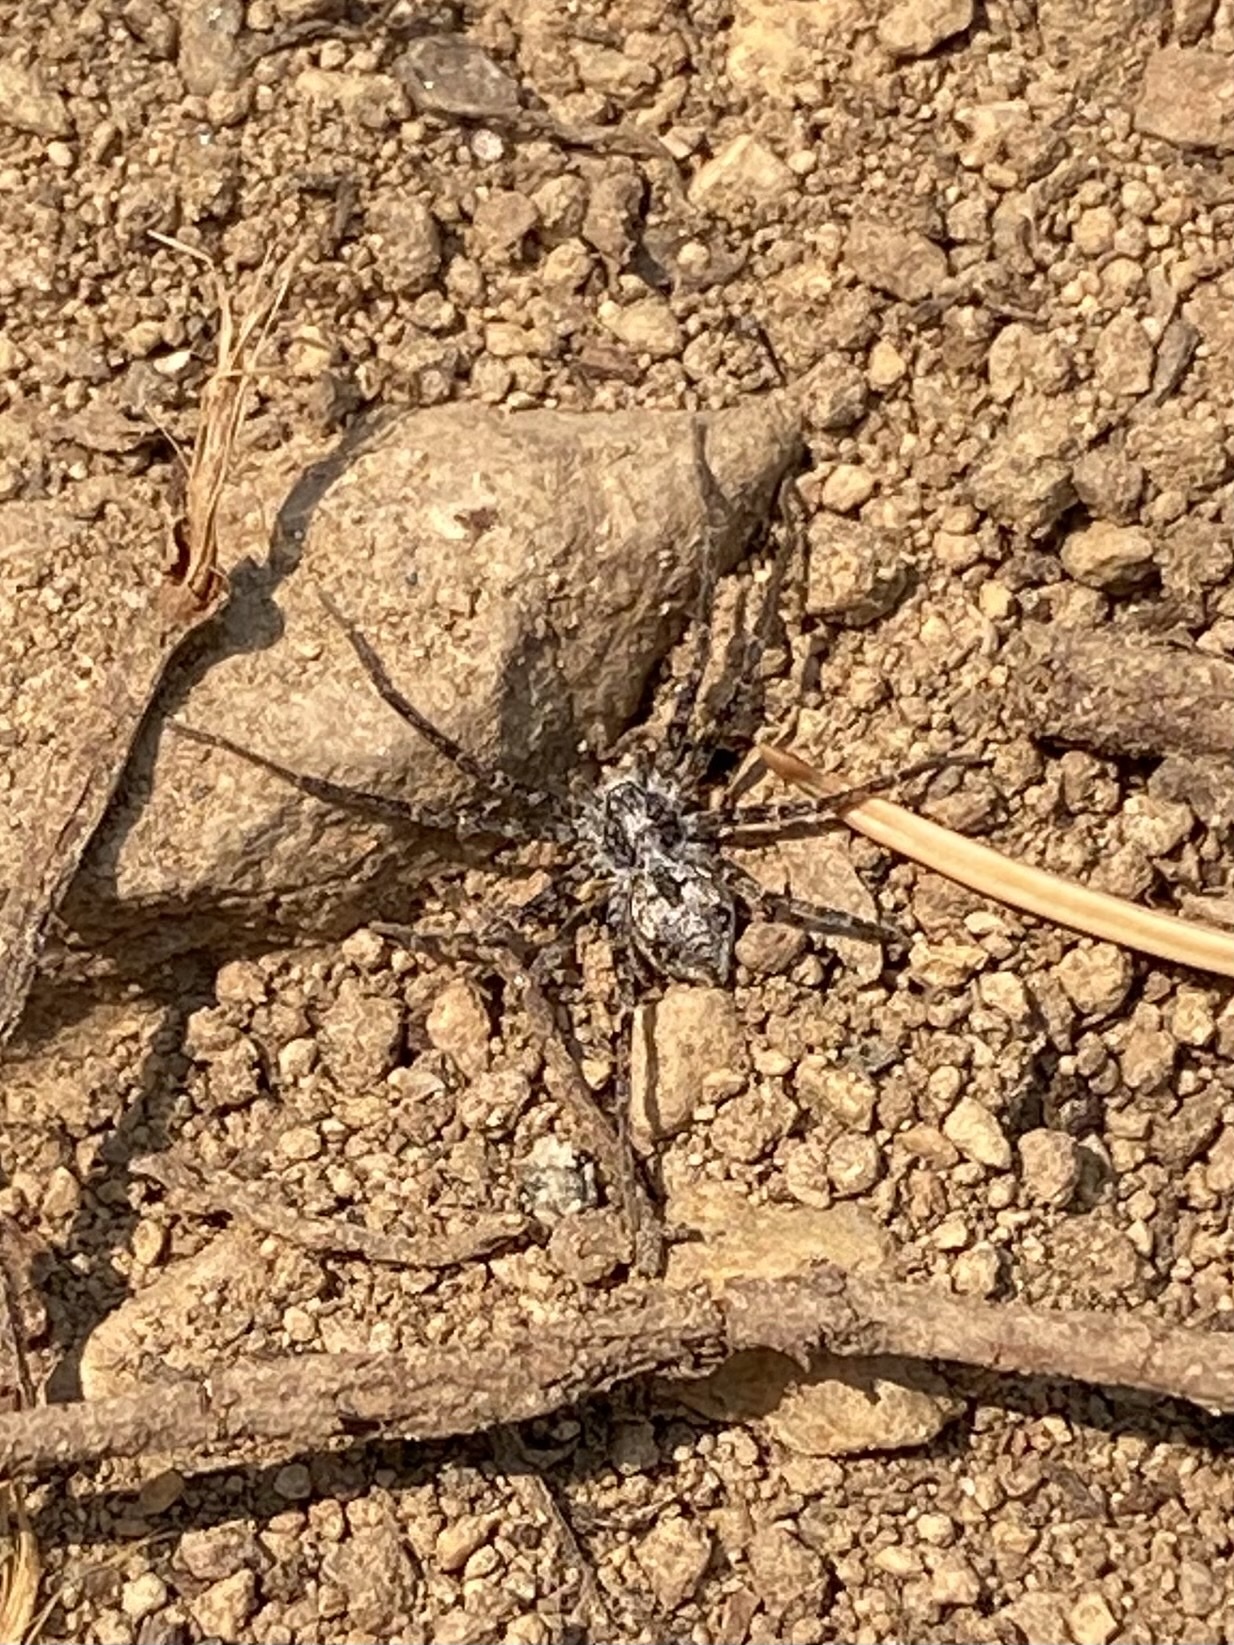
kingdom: Animalia
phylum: Arthropoda
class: Arachnida
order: Araneae
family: Philodromidae
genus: Rhysodromus
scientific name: Rhysodromus
